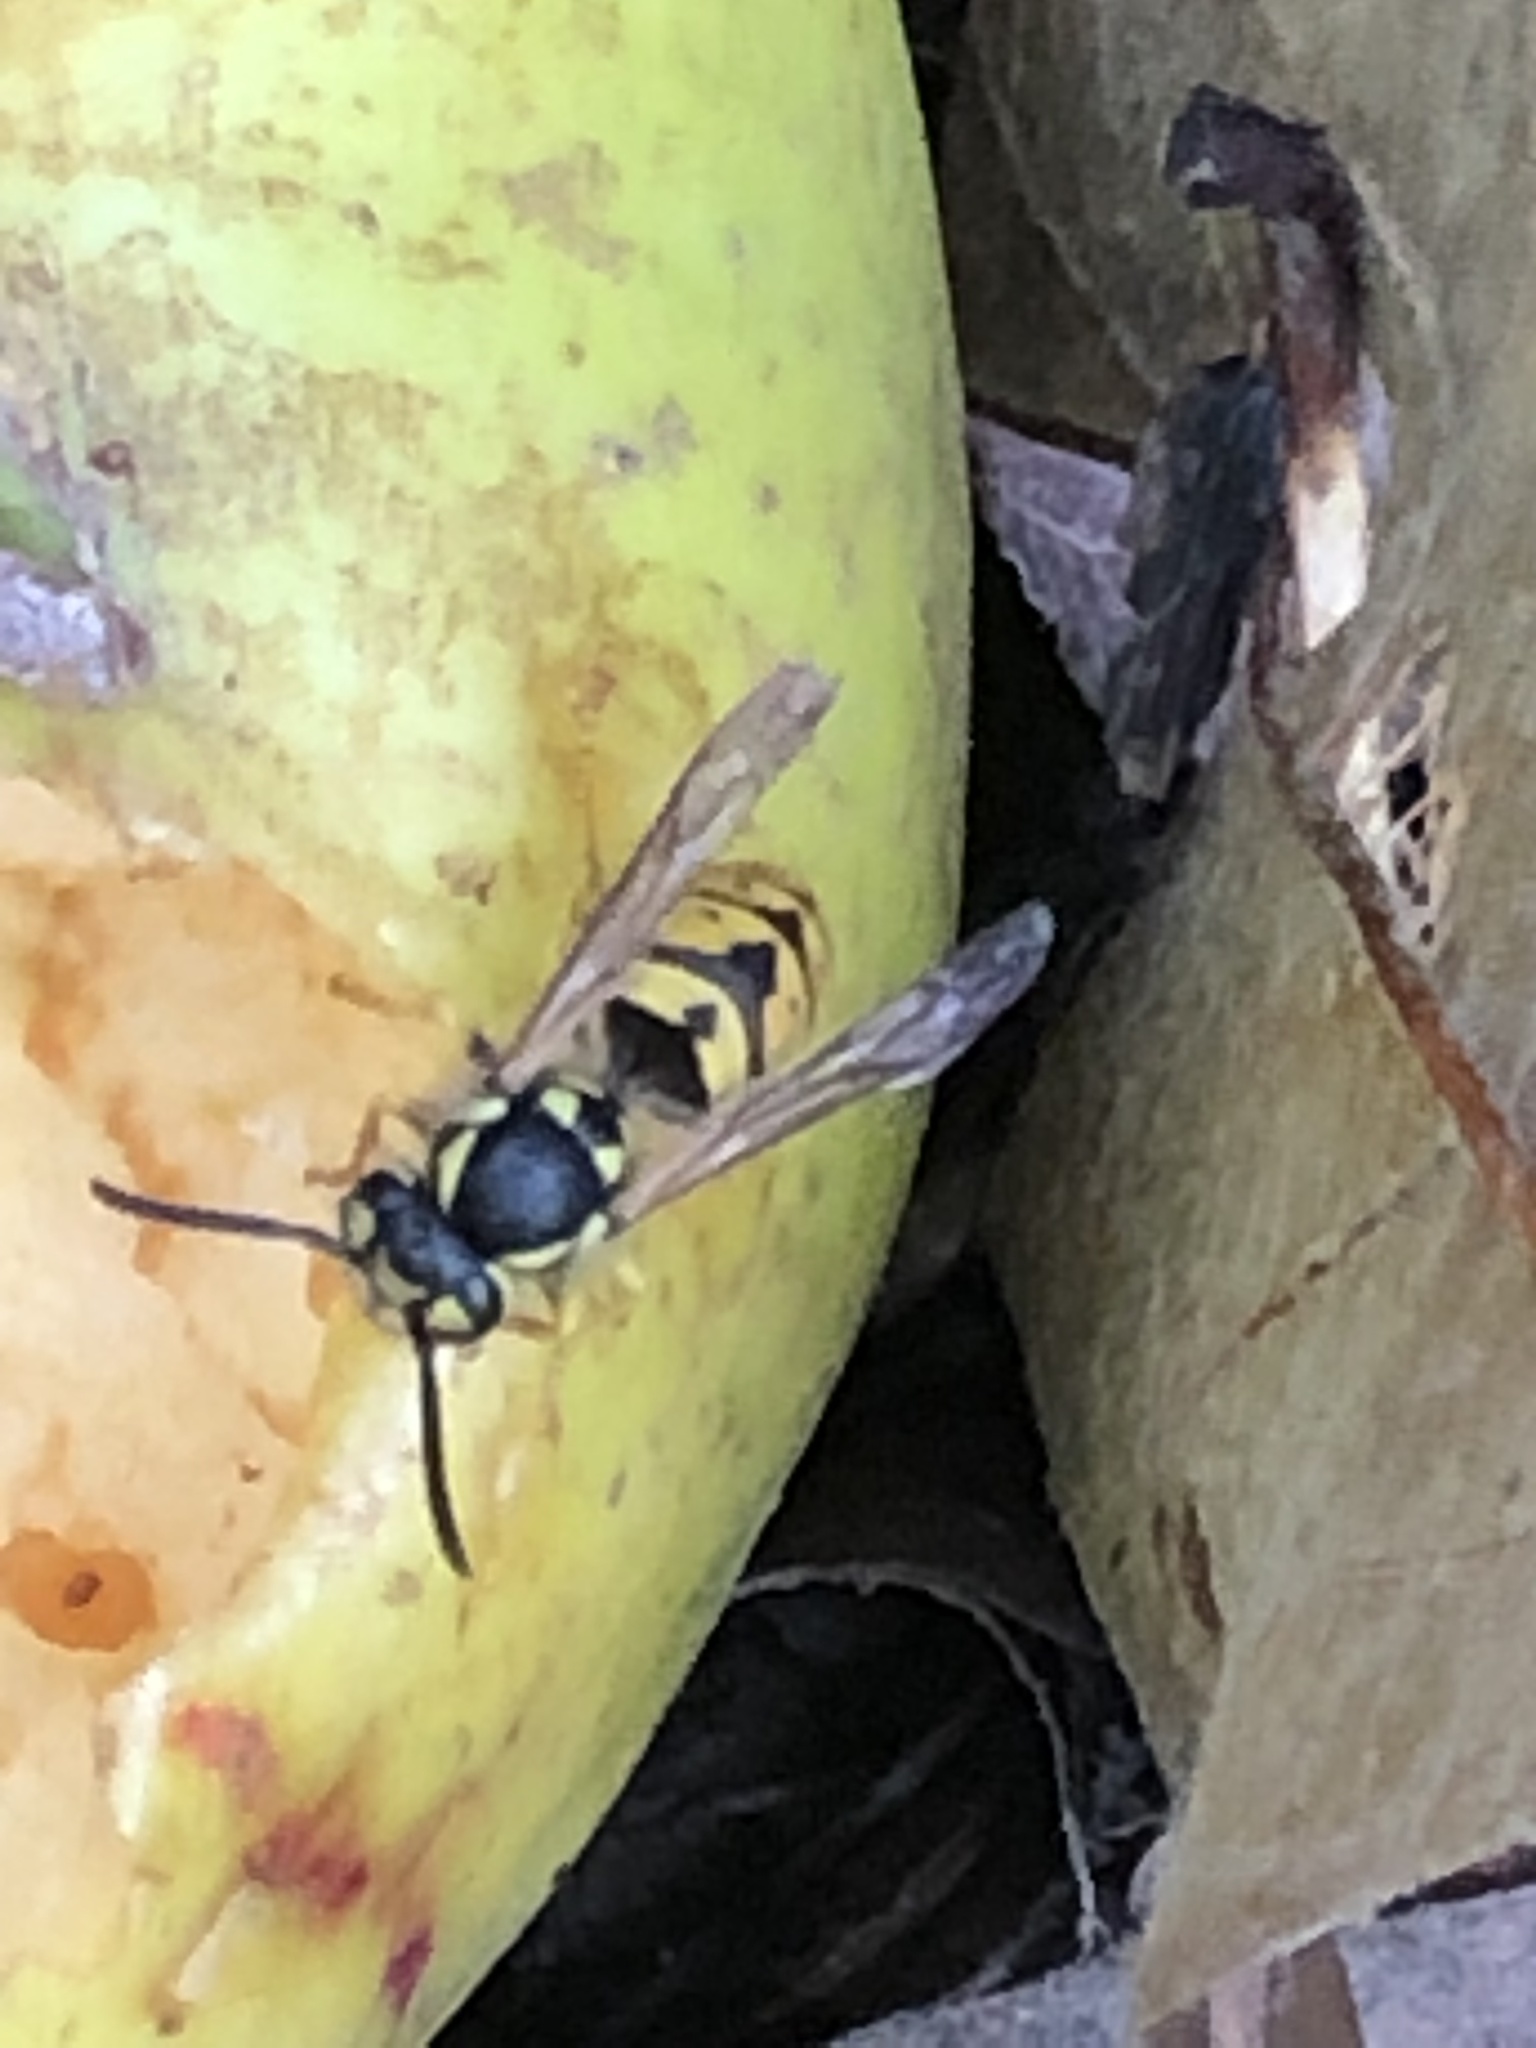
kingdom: Animalia
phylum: Arthropoda
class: Insecta
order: Hymenoptera
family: Vespidae
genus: Vespula
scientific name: Vespula germanica
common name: German wasp
